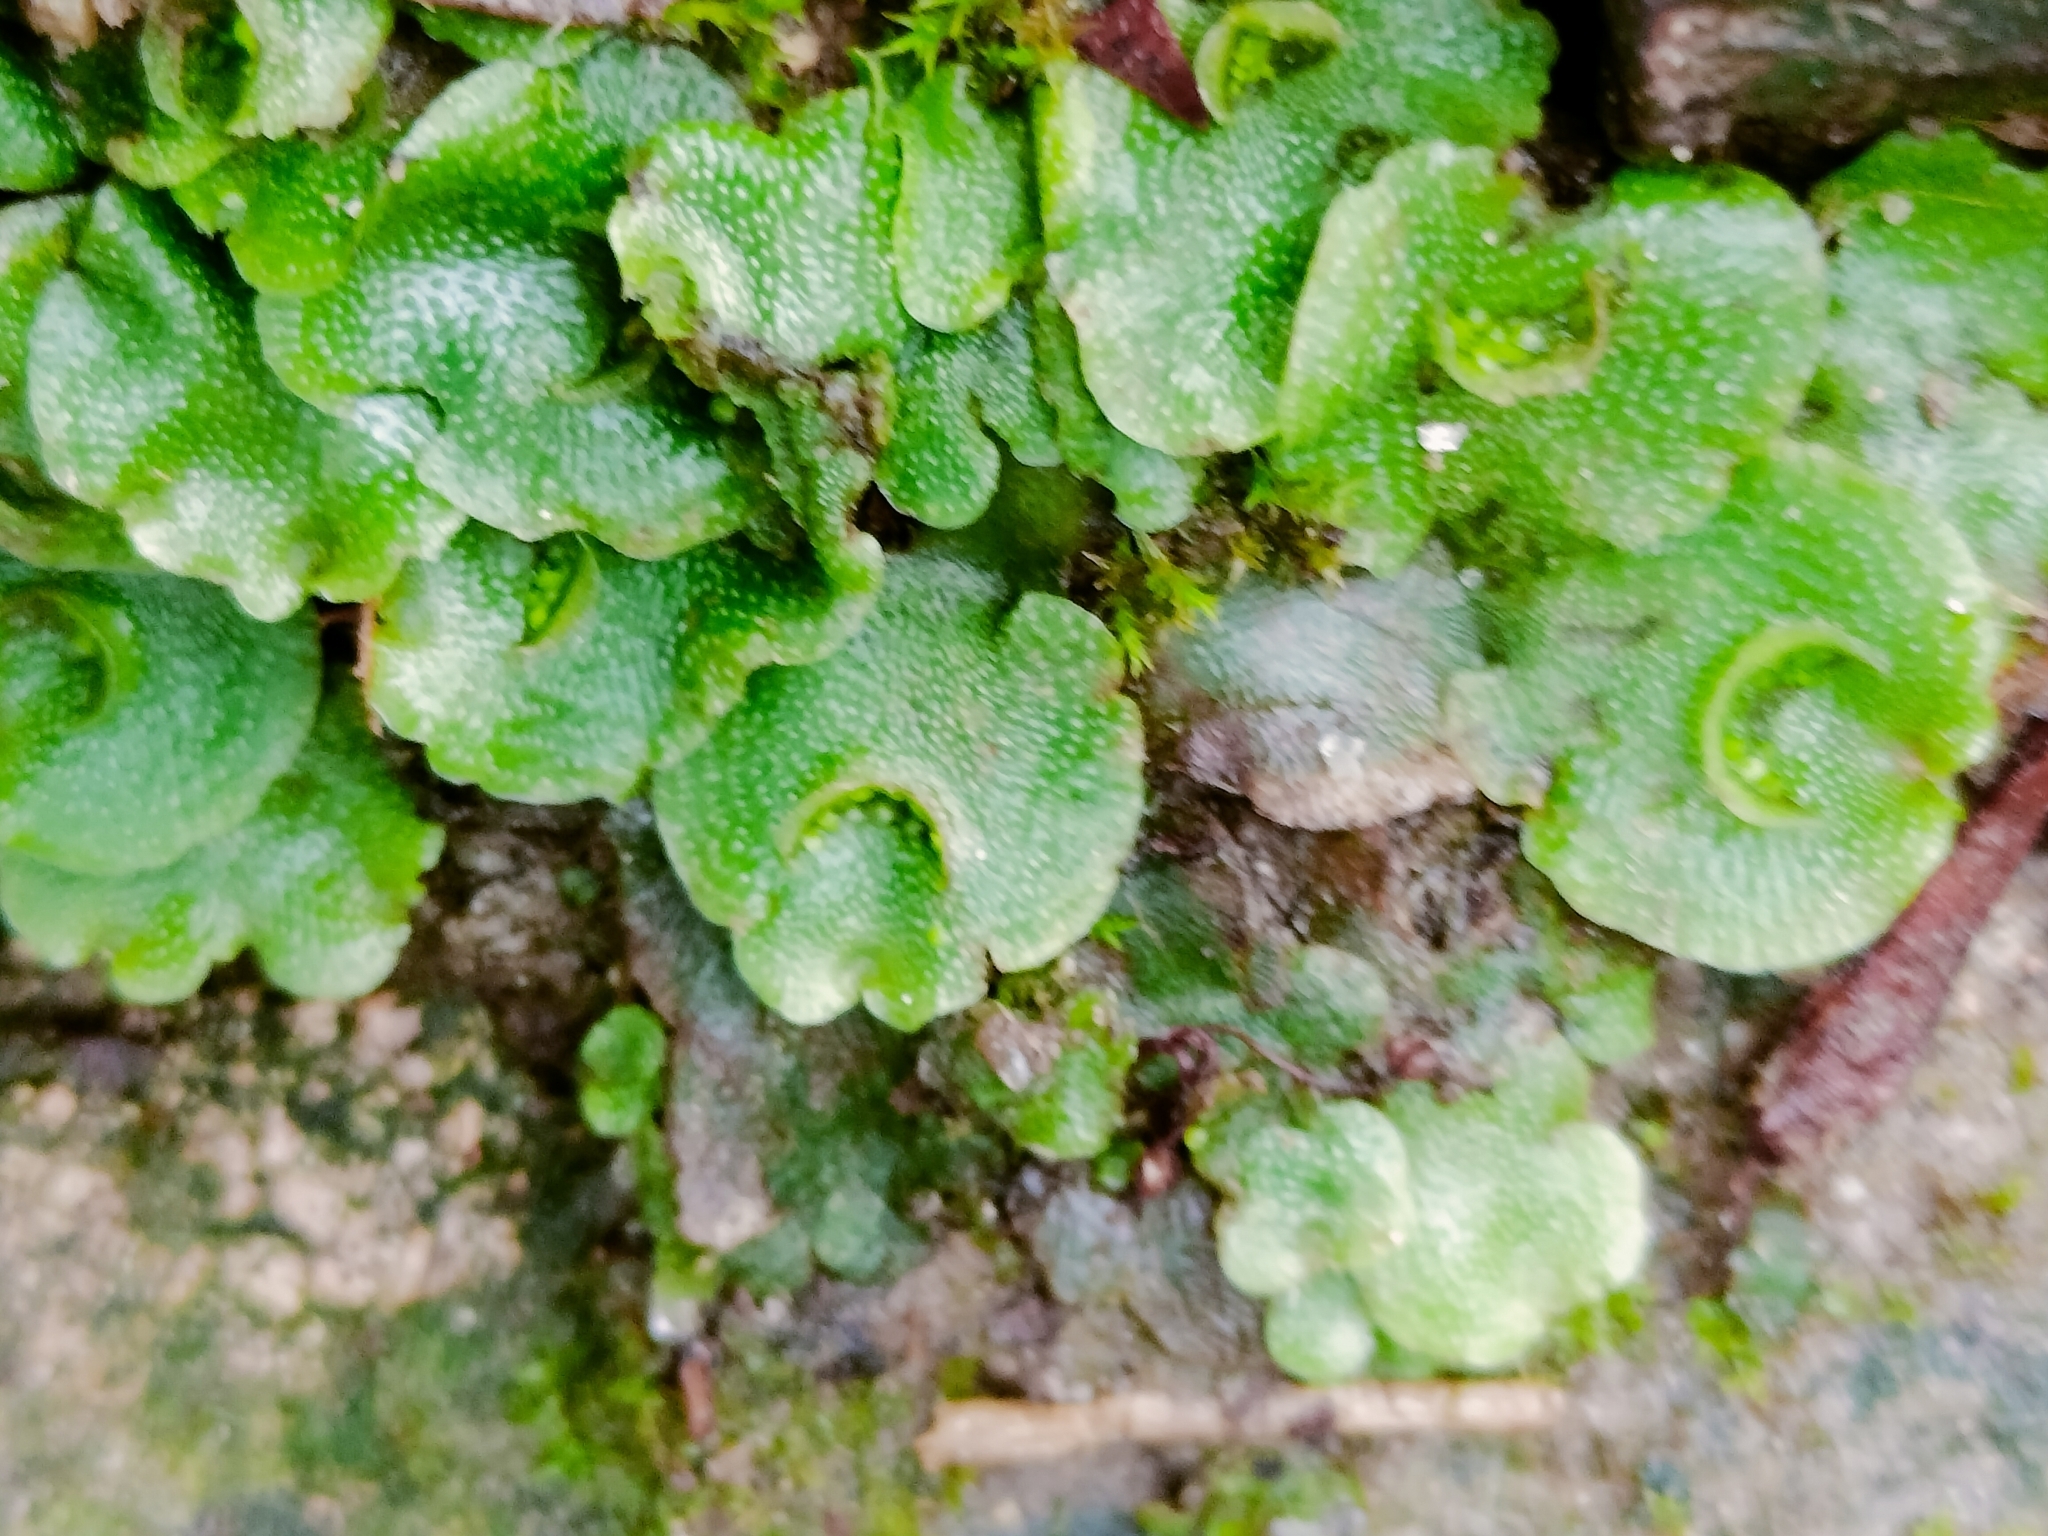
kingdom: Plantae
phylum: Marchantiophyta
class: Marchantiopsida
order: Lunulariales
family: Lunulariaceae
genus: Lunularia
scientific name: Lunularia cruciata
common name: Crescent-cup liverwort
